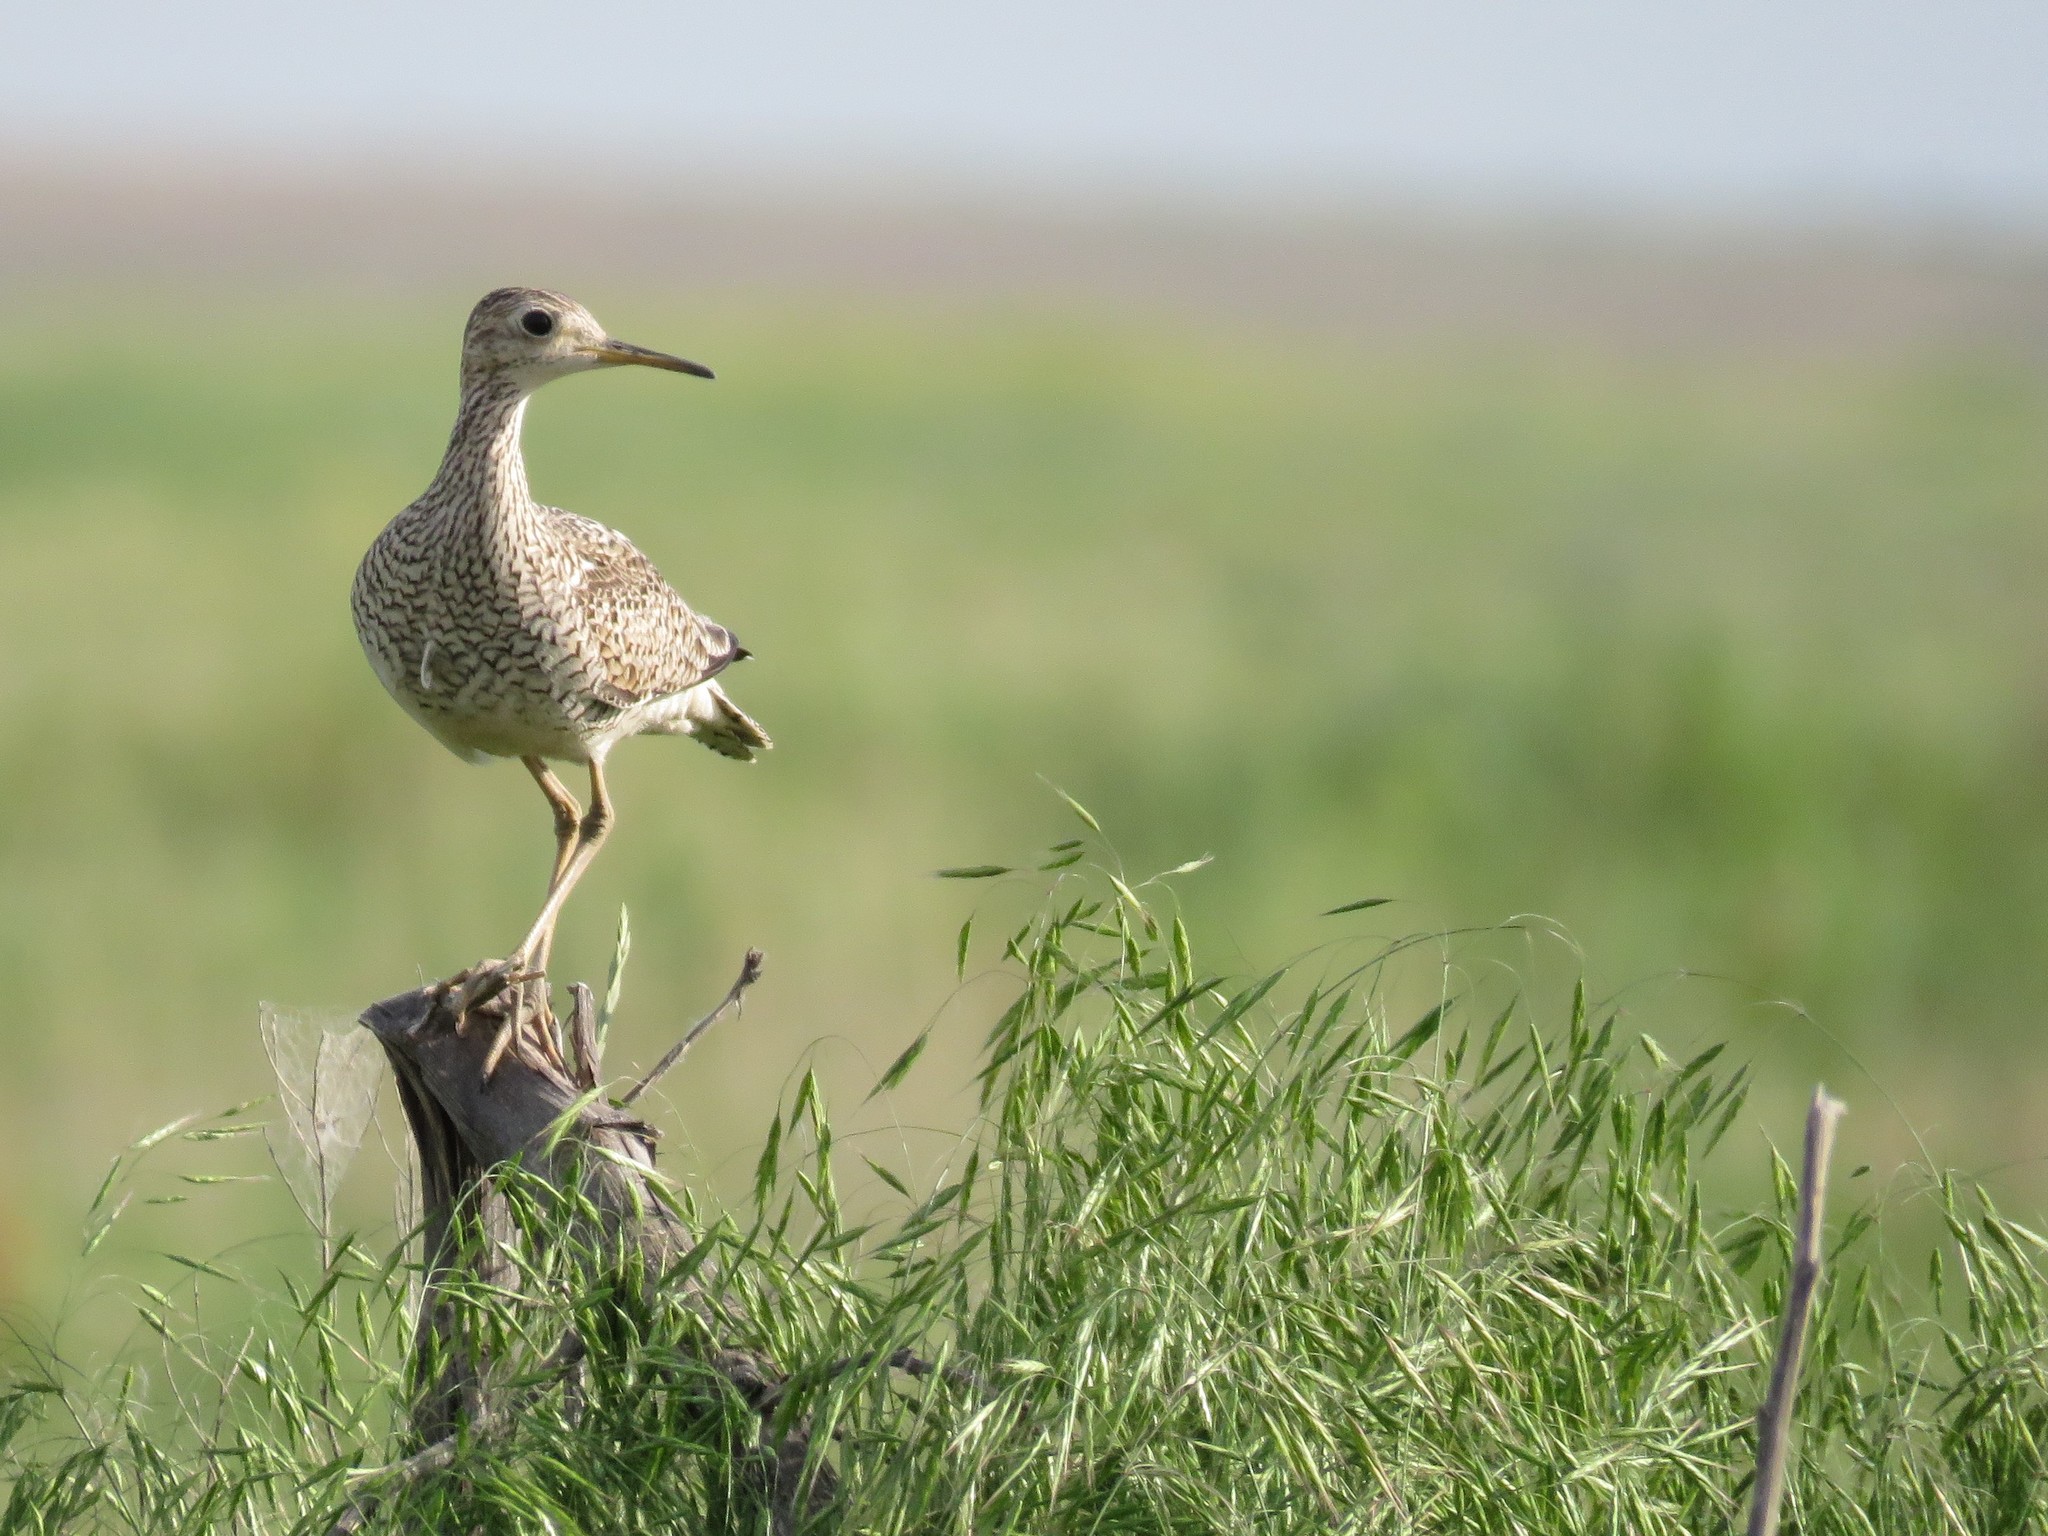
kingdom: Animalia
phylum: Chordata
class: Aves
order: Charadriiformes
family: Scolopacidae
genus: Bartramia
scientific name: Bartramia longicauda
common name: Upland sandpiper
